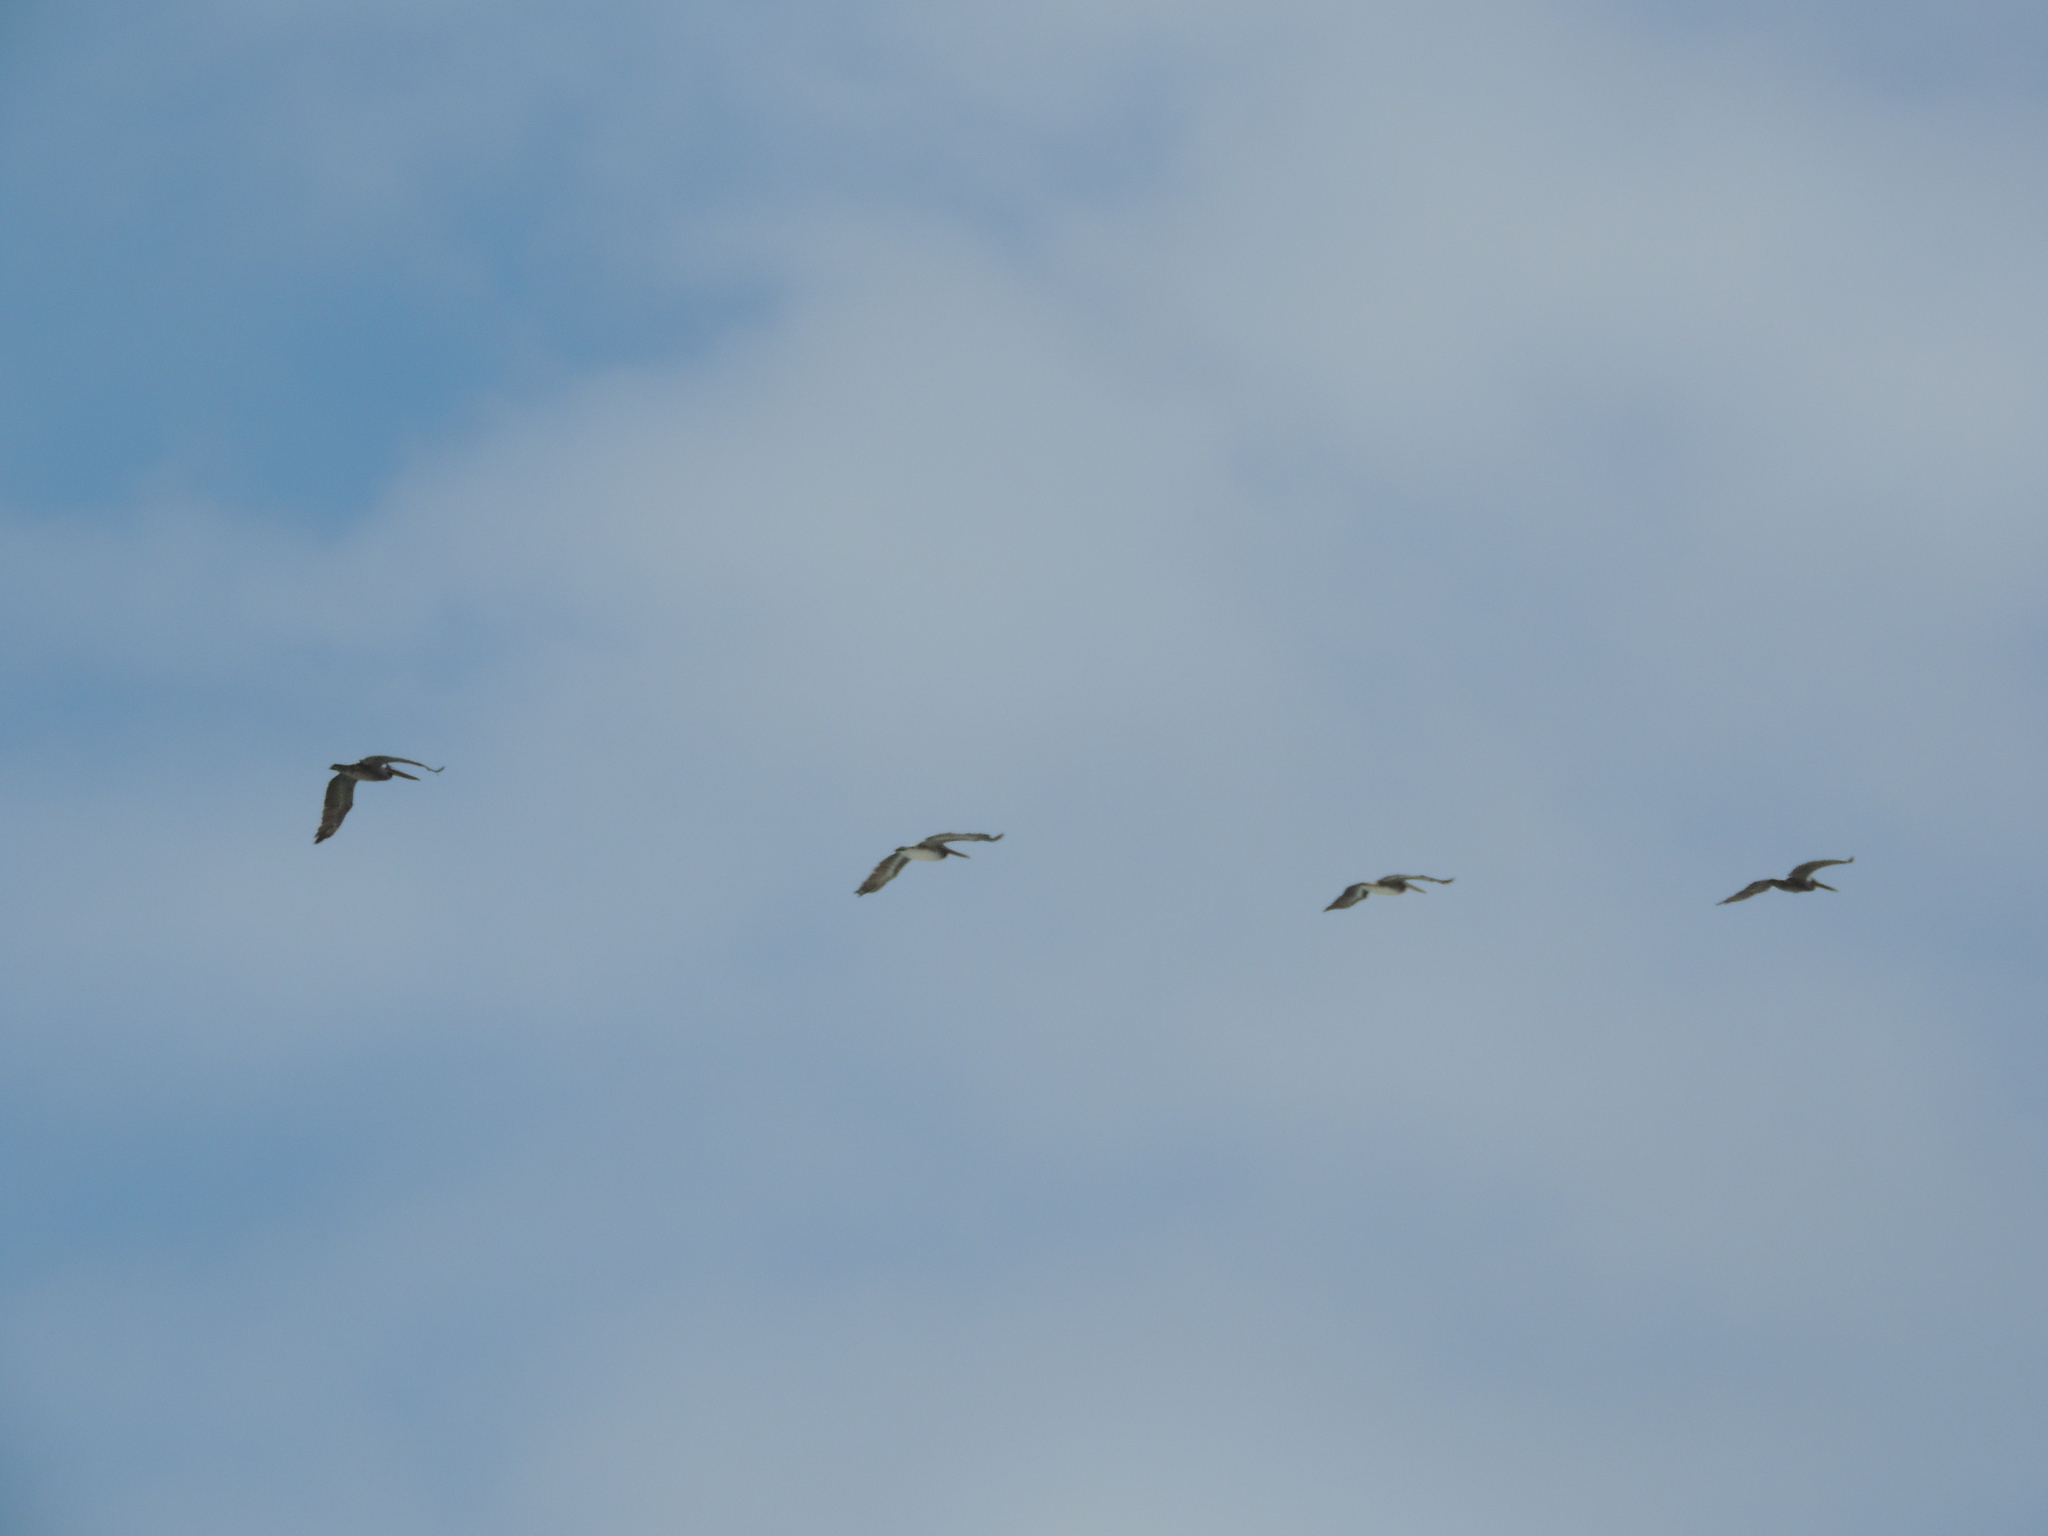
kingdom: Animalia
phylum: Chordata
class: Aves
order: Pelecaniformes
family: Pelecanidae
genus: Pelecanus
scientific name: Pelecanus occidentalis
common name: Brown pelican
